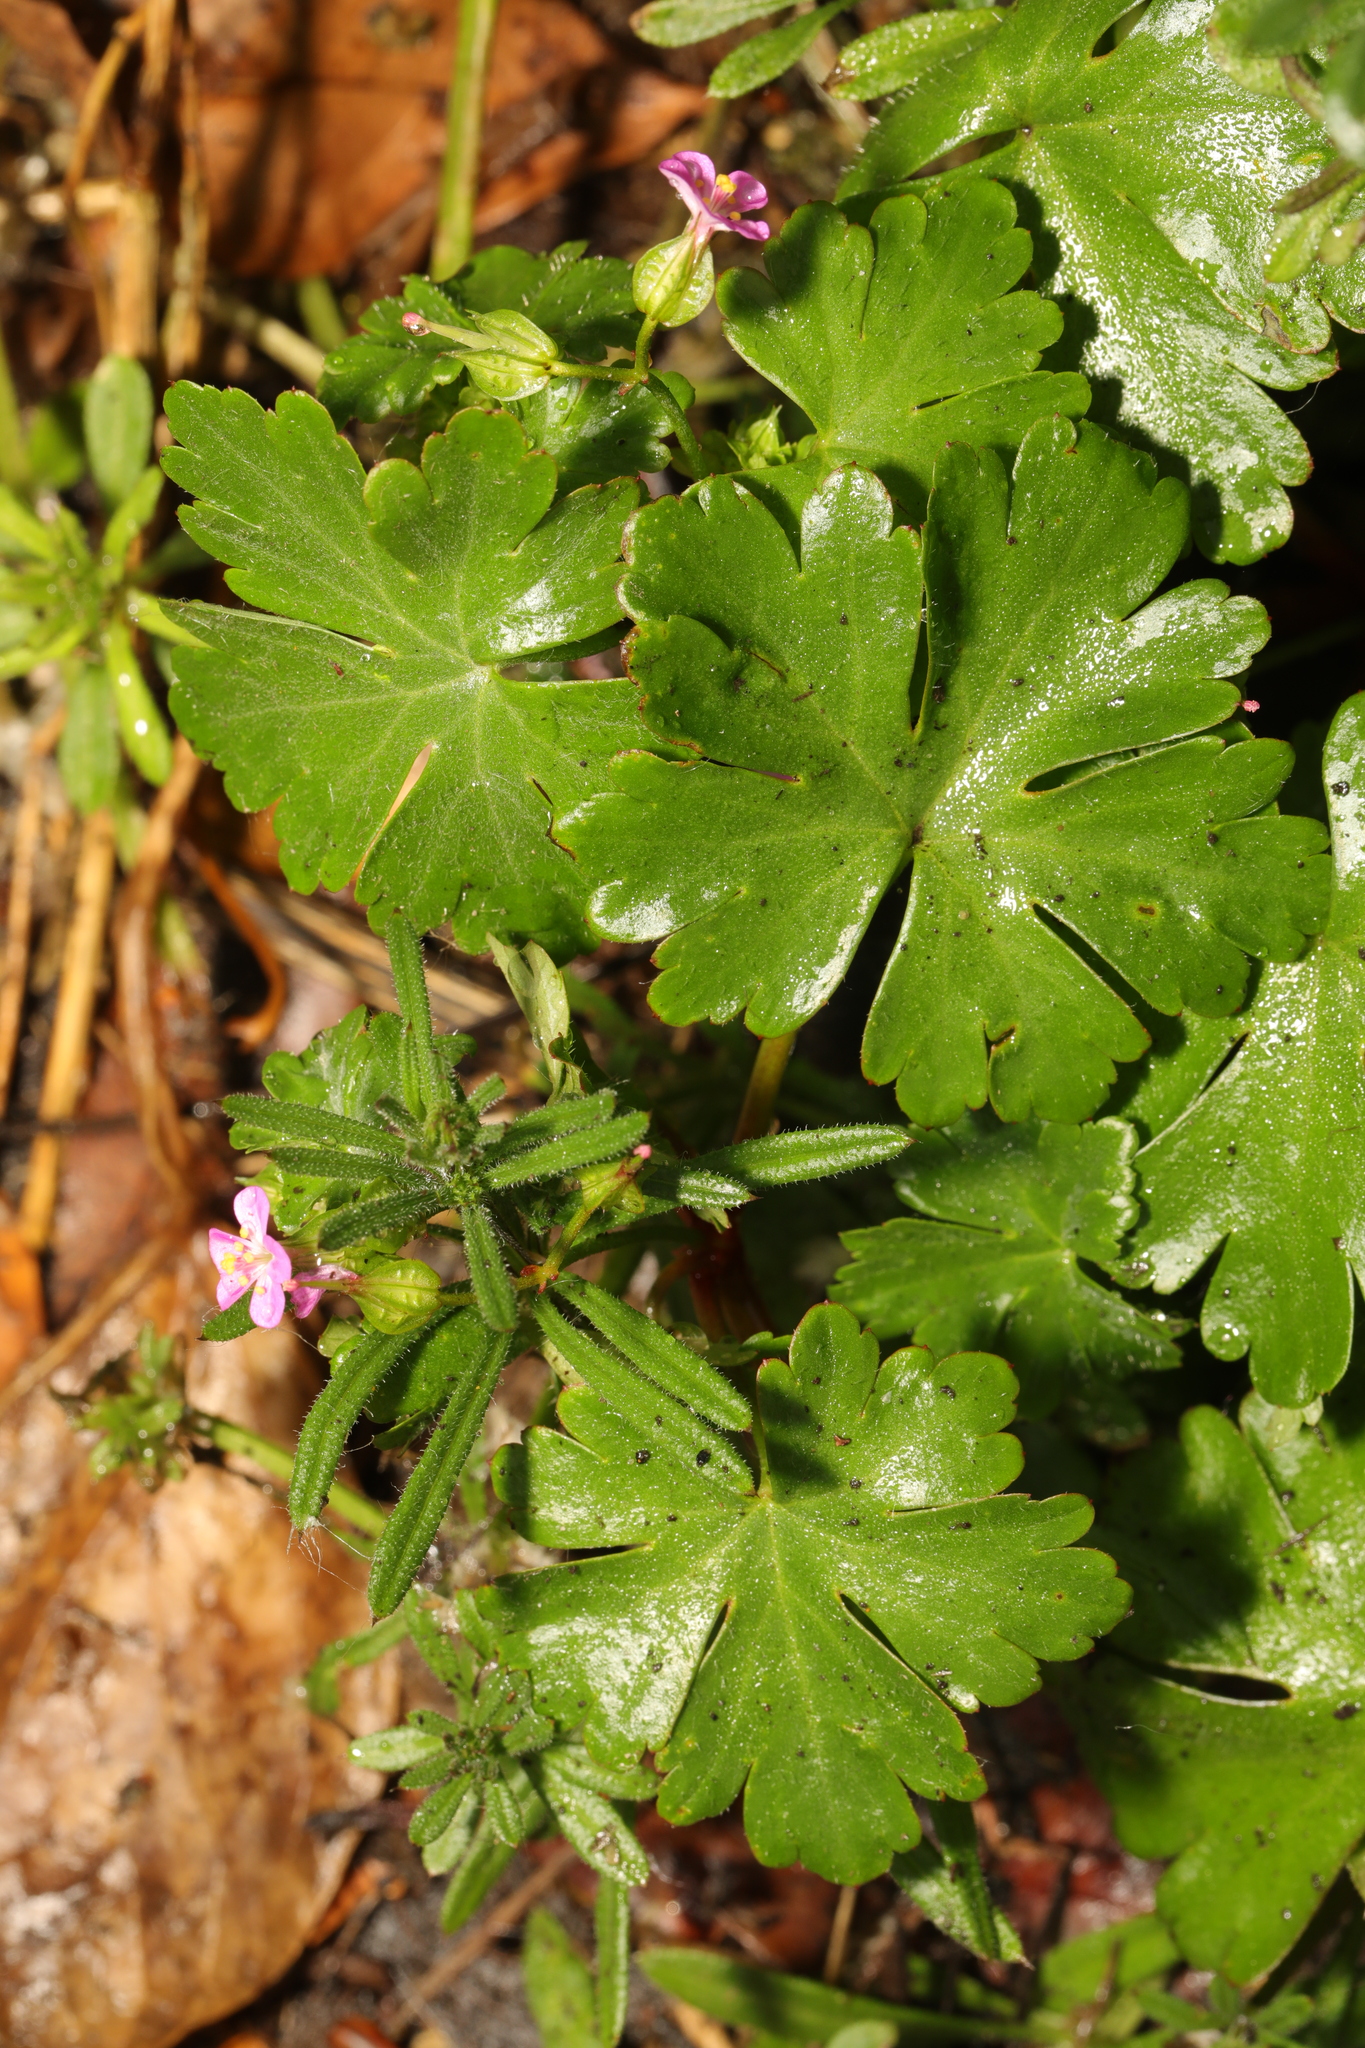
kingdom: Plantae
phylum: Tracheophyta
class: Magnoliopsida
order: Geraniales
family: Geraniaceae
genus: Geranium
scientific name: Geranium lucidum
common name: Shining crane's-bill
